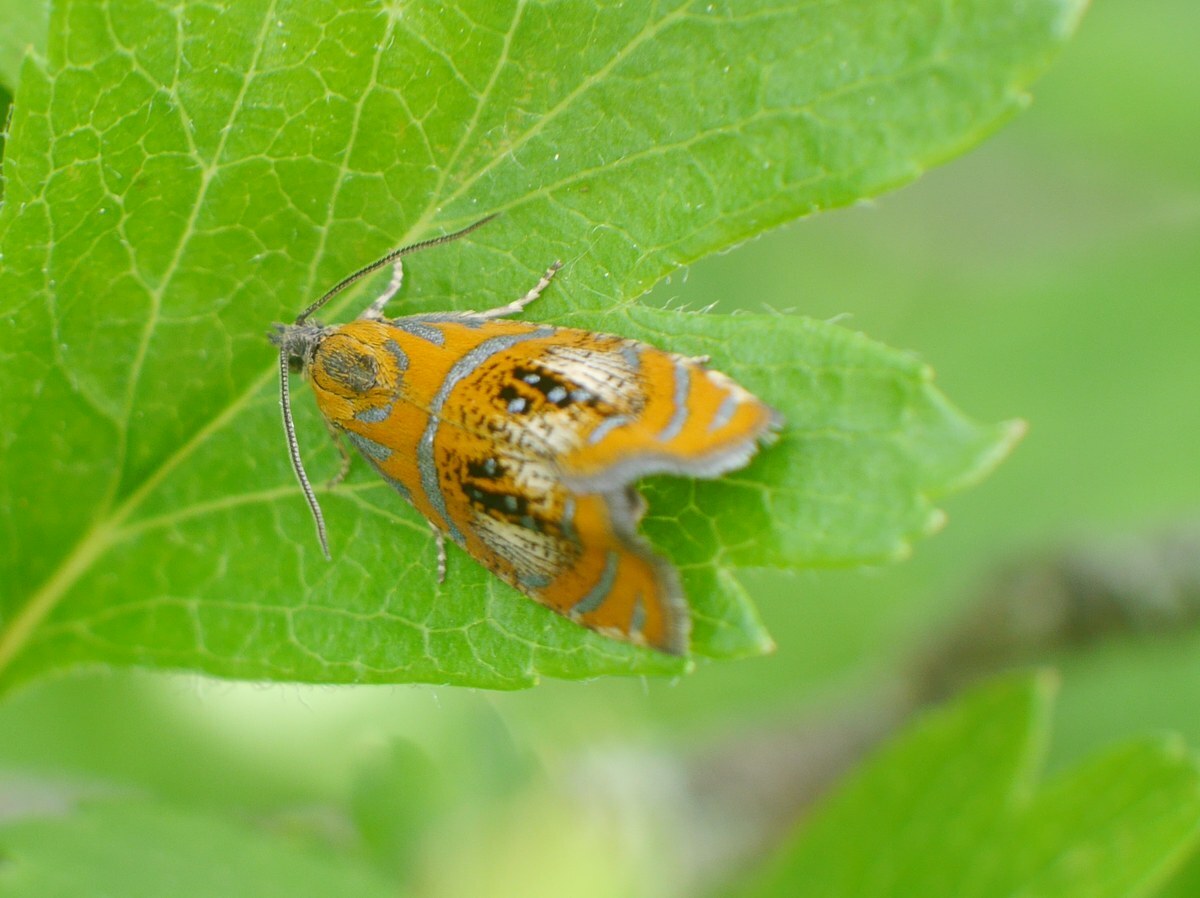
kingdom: Animalia
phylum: Arthropoda
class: Insecta
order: Lepidoptera
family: Tortricidae
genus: Olethreutes
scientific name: Olethreutes arcuella
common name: Arched marble
